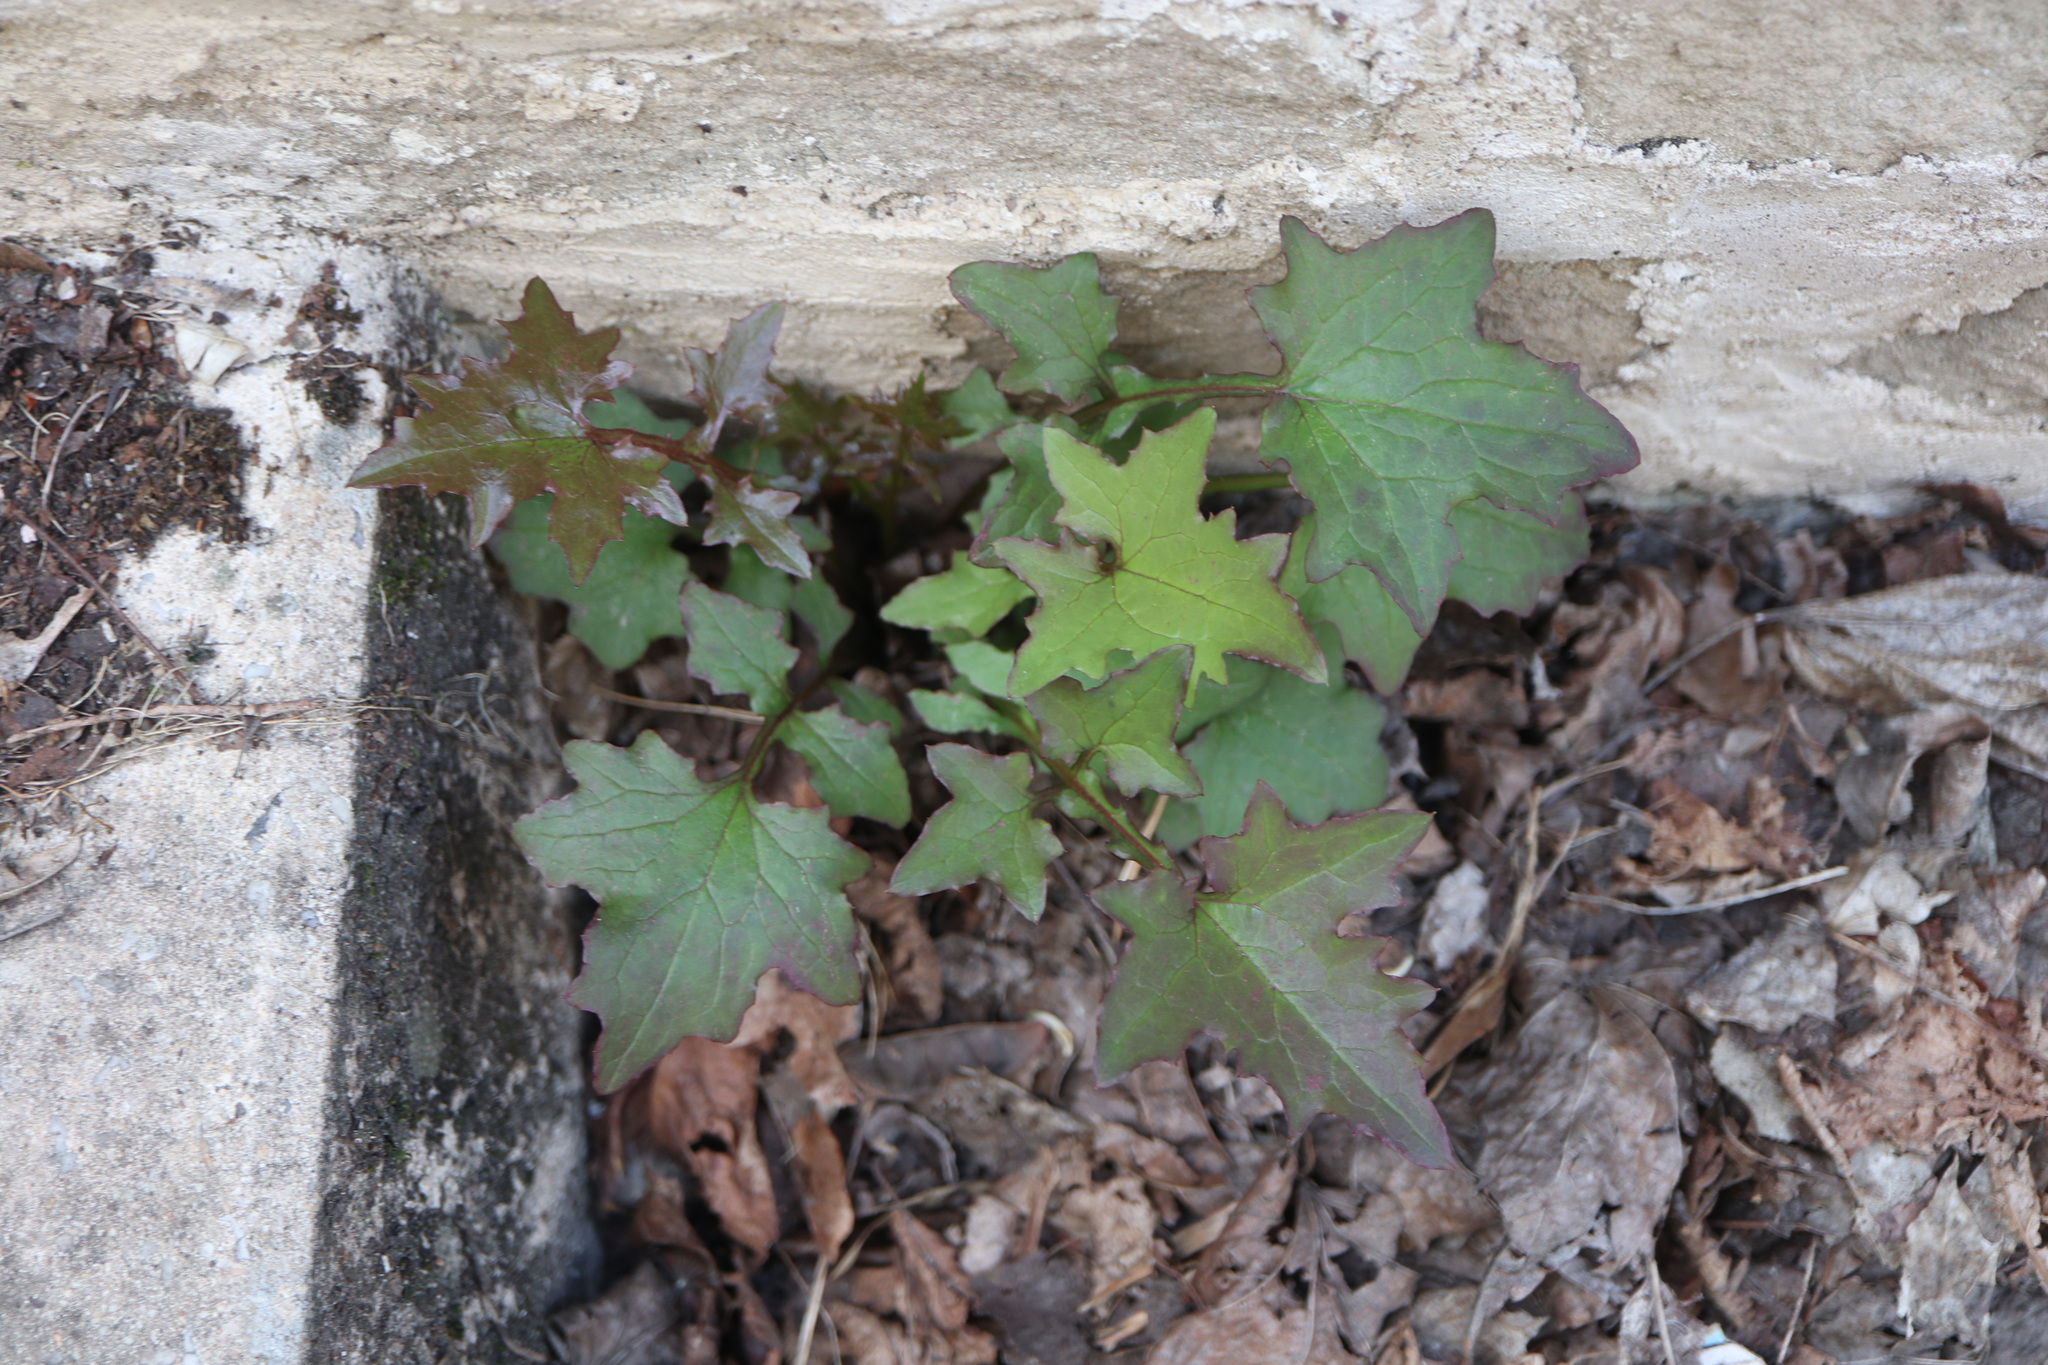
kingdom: Plantae
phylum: Tracheophyta
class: Magnoliopsida
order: Asterales
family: Asteraceae
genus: Mycelis
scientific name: Mycelis muralis
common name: Wall lettuce
